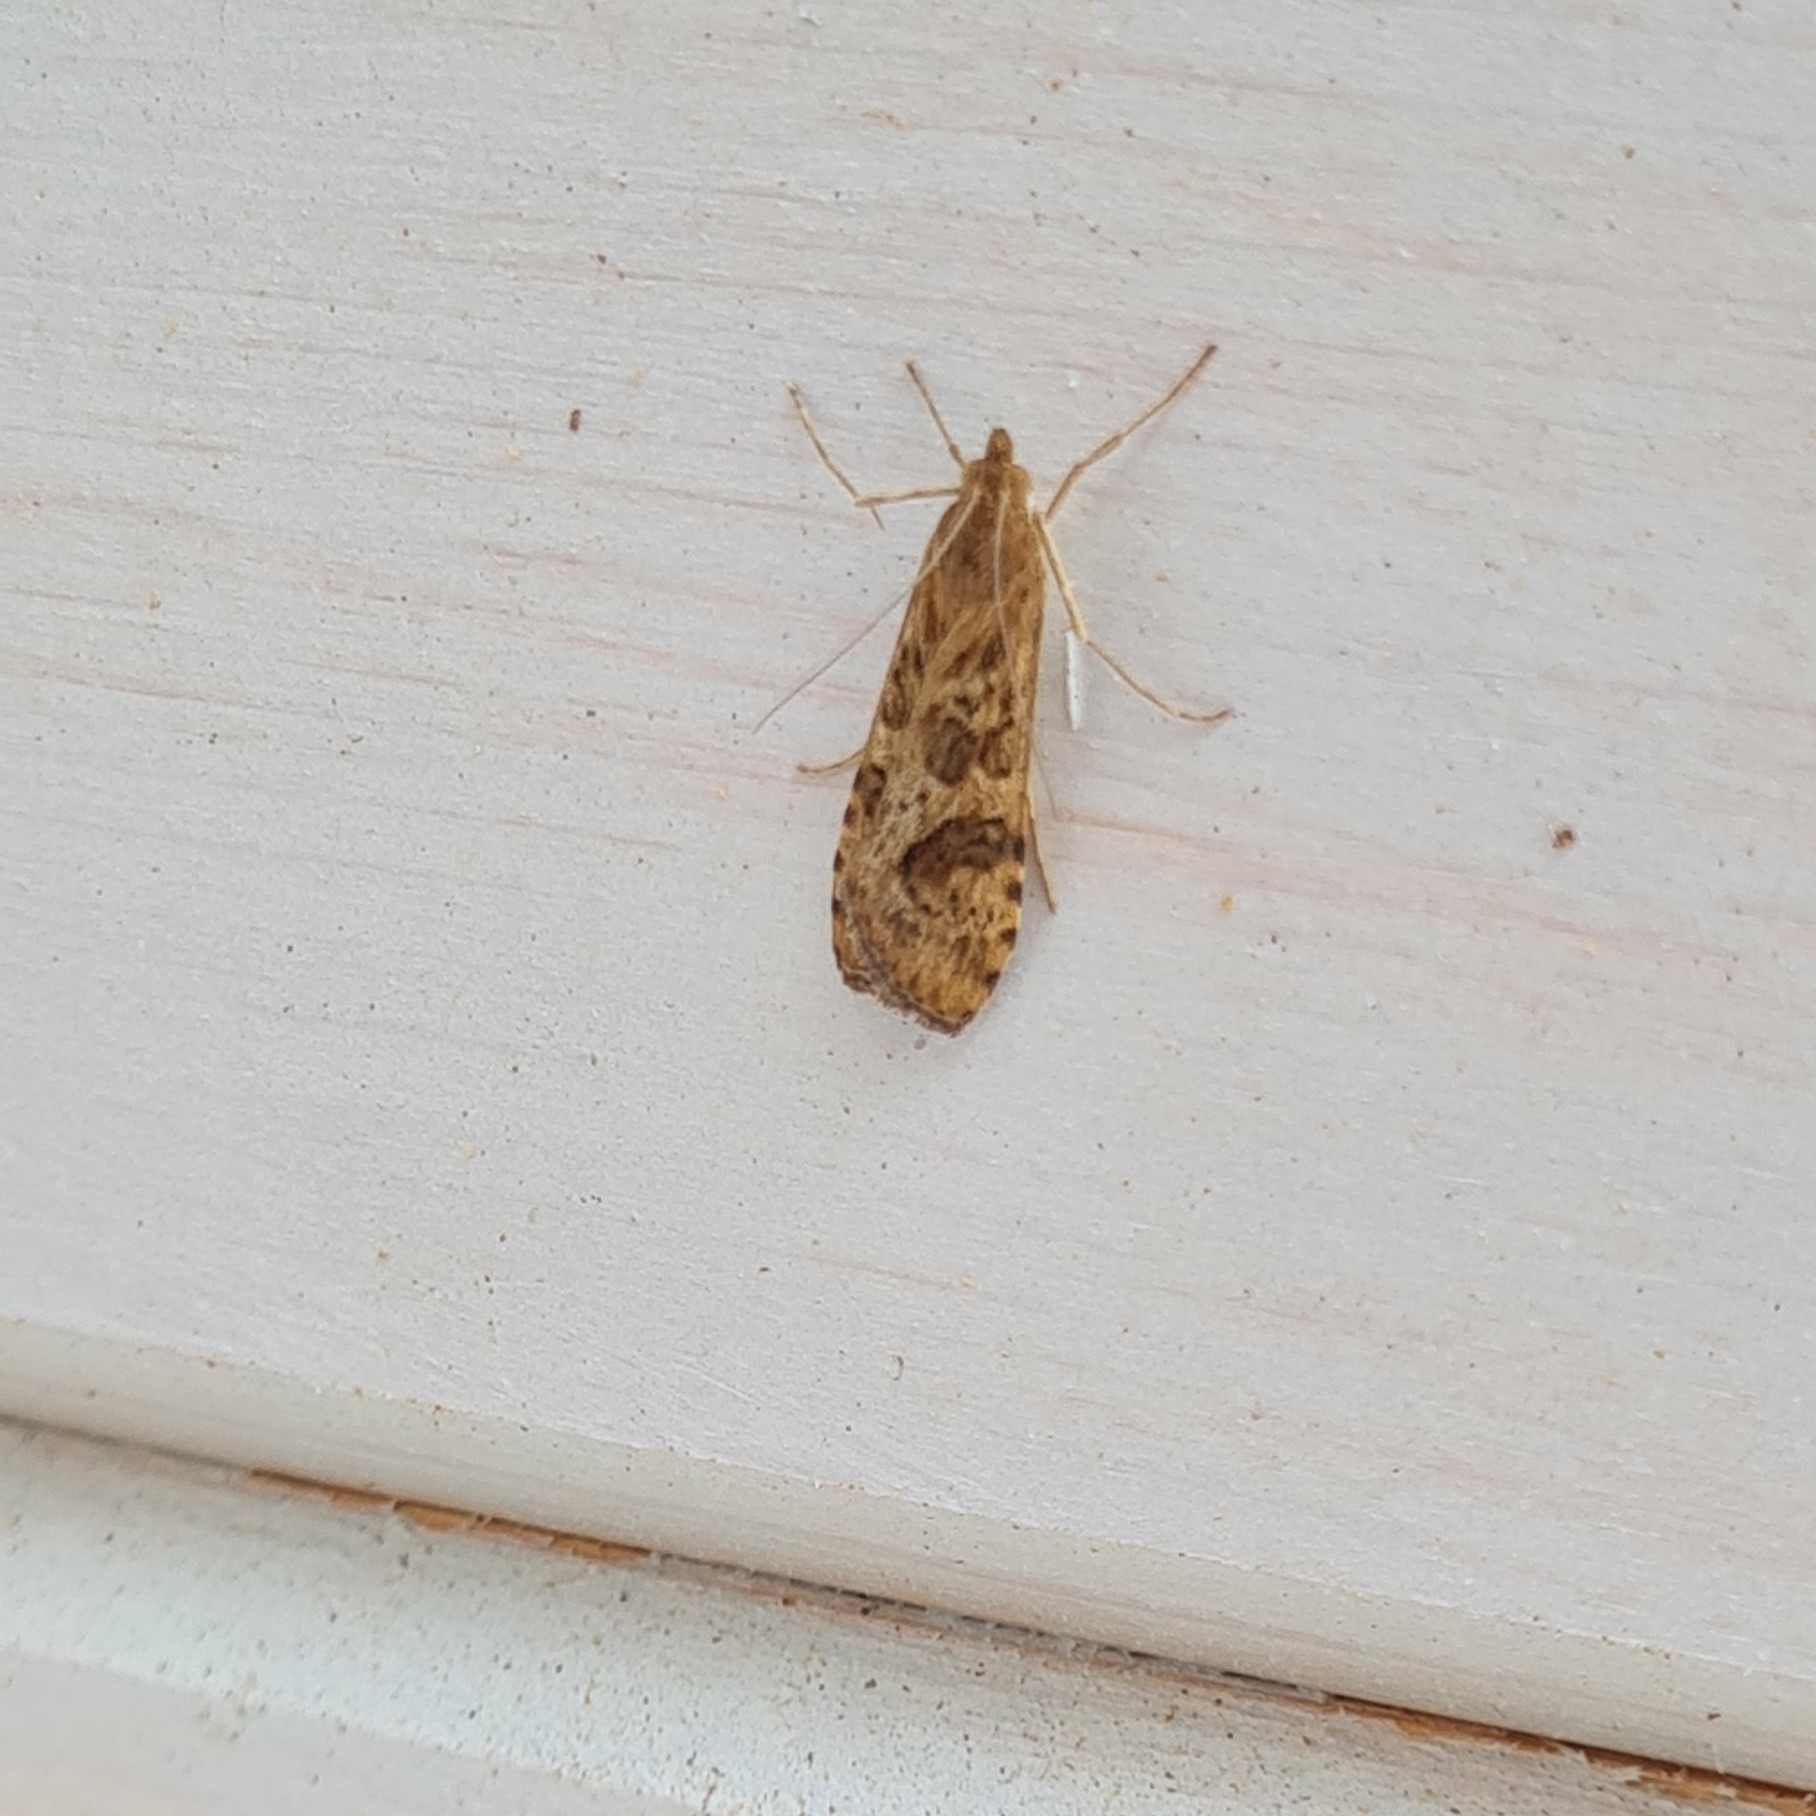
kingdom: Animalia
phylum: Arthropoda
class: Insecta
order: Lepidoptera
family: Crambidae
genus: Nomophila
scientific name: Nomophila noctuella
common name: Rush veneer
